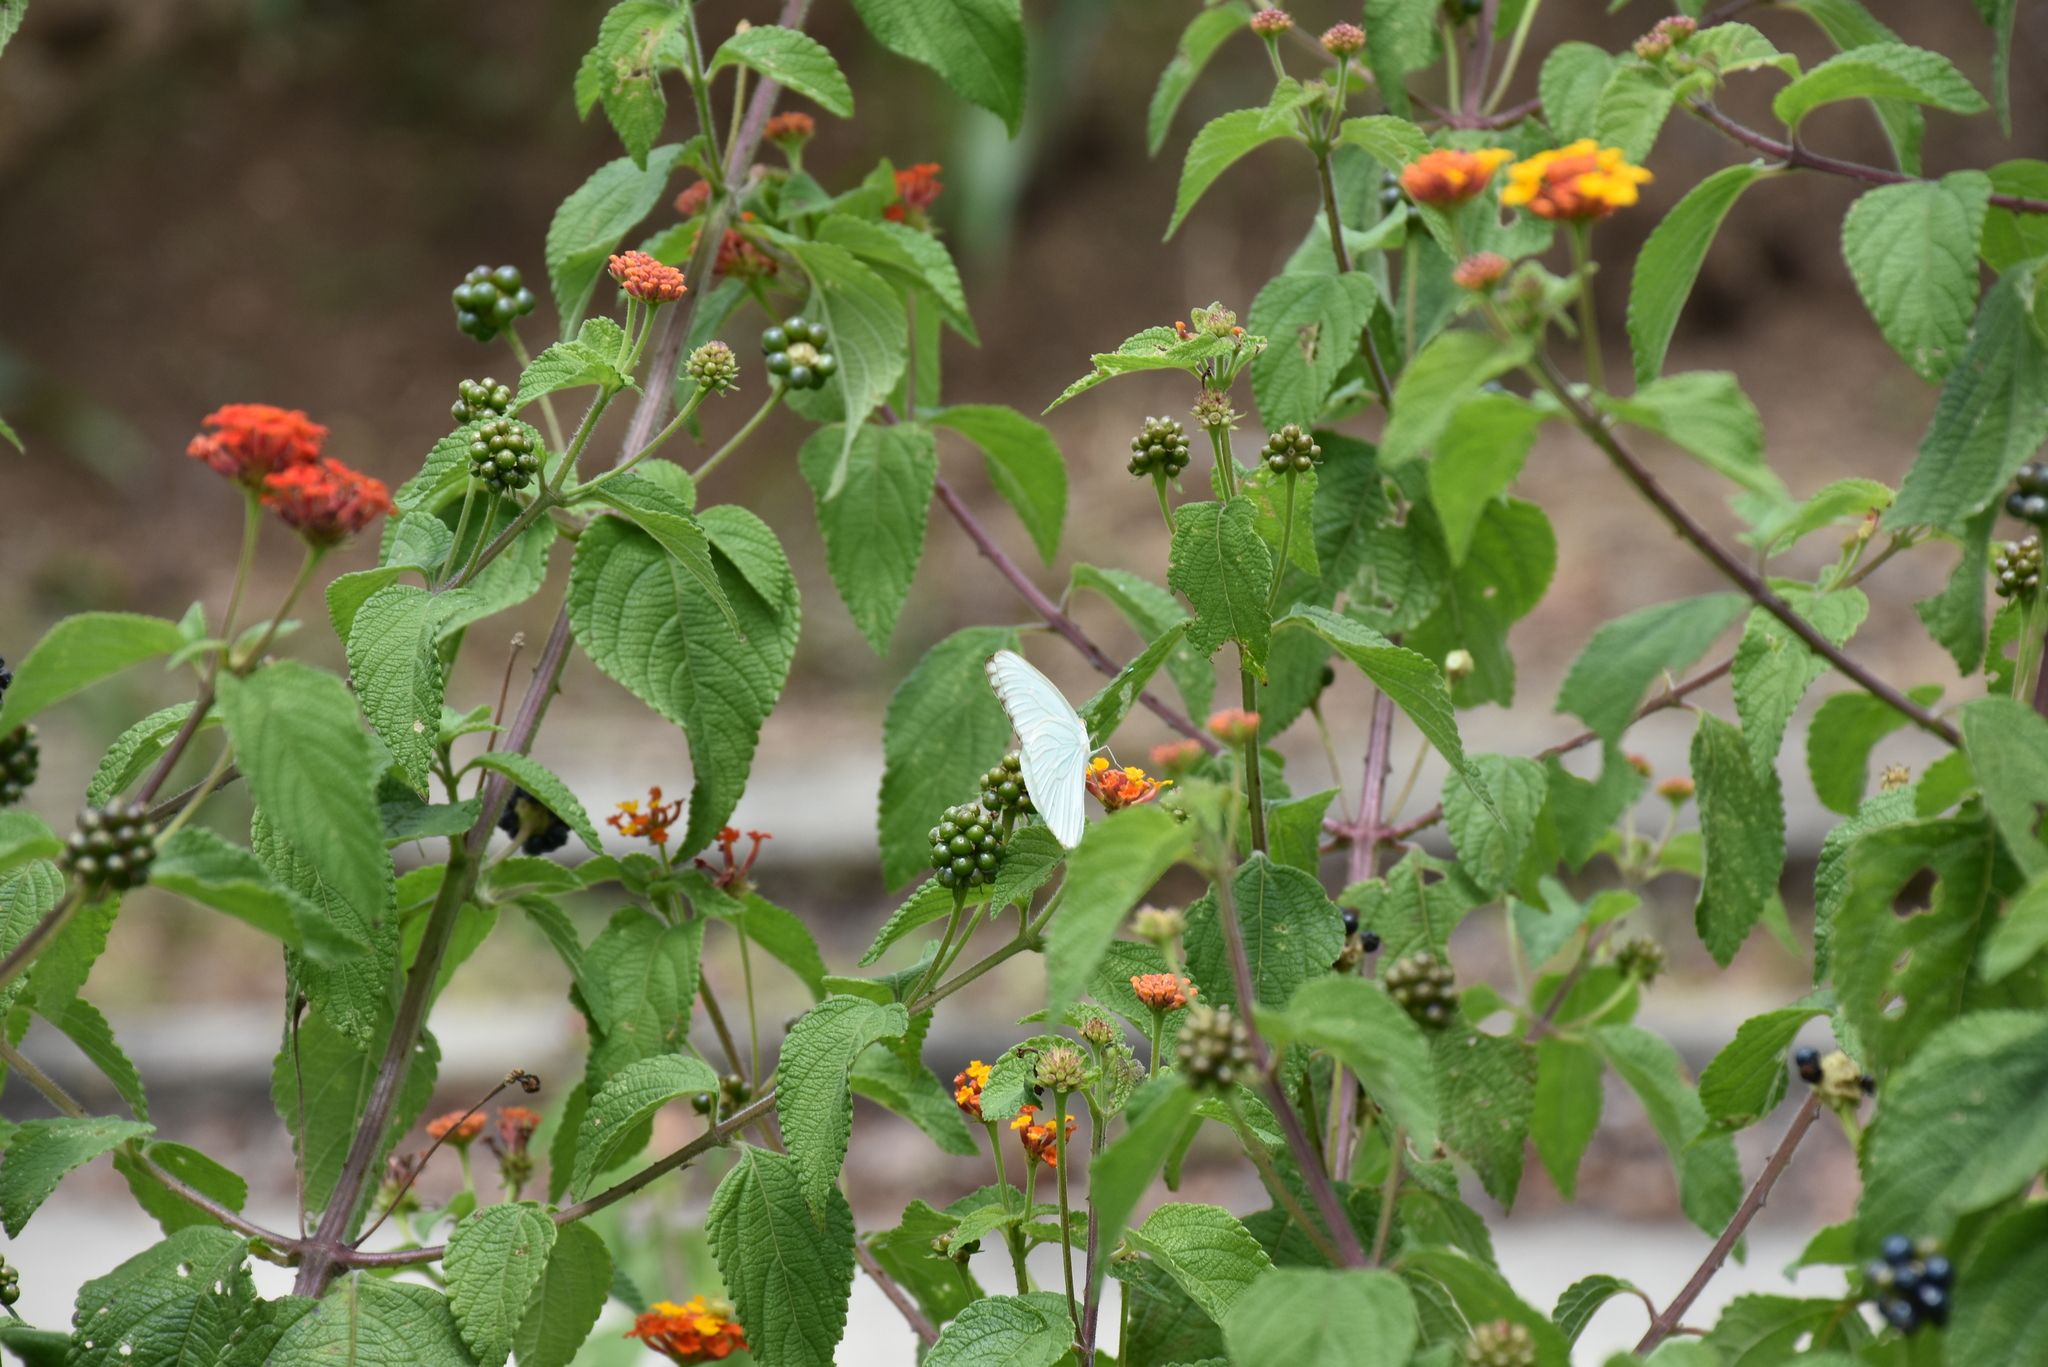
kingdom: Animalia
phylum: Arthropoda
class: Insecta
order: Lepidoptera
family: Pieridae
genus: Ascia
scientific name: Ascia monuste
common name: Great southern white
